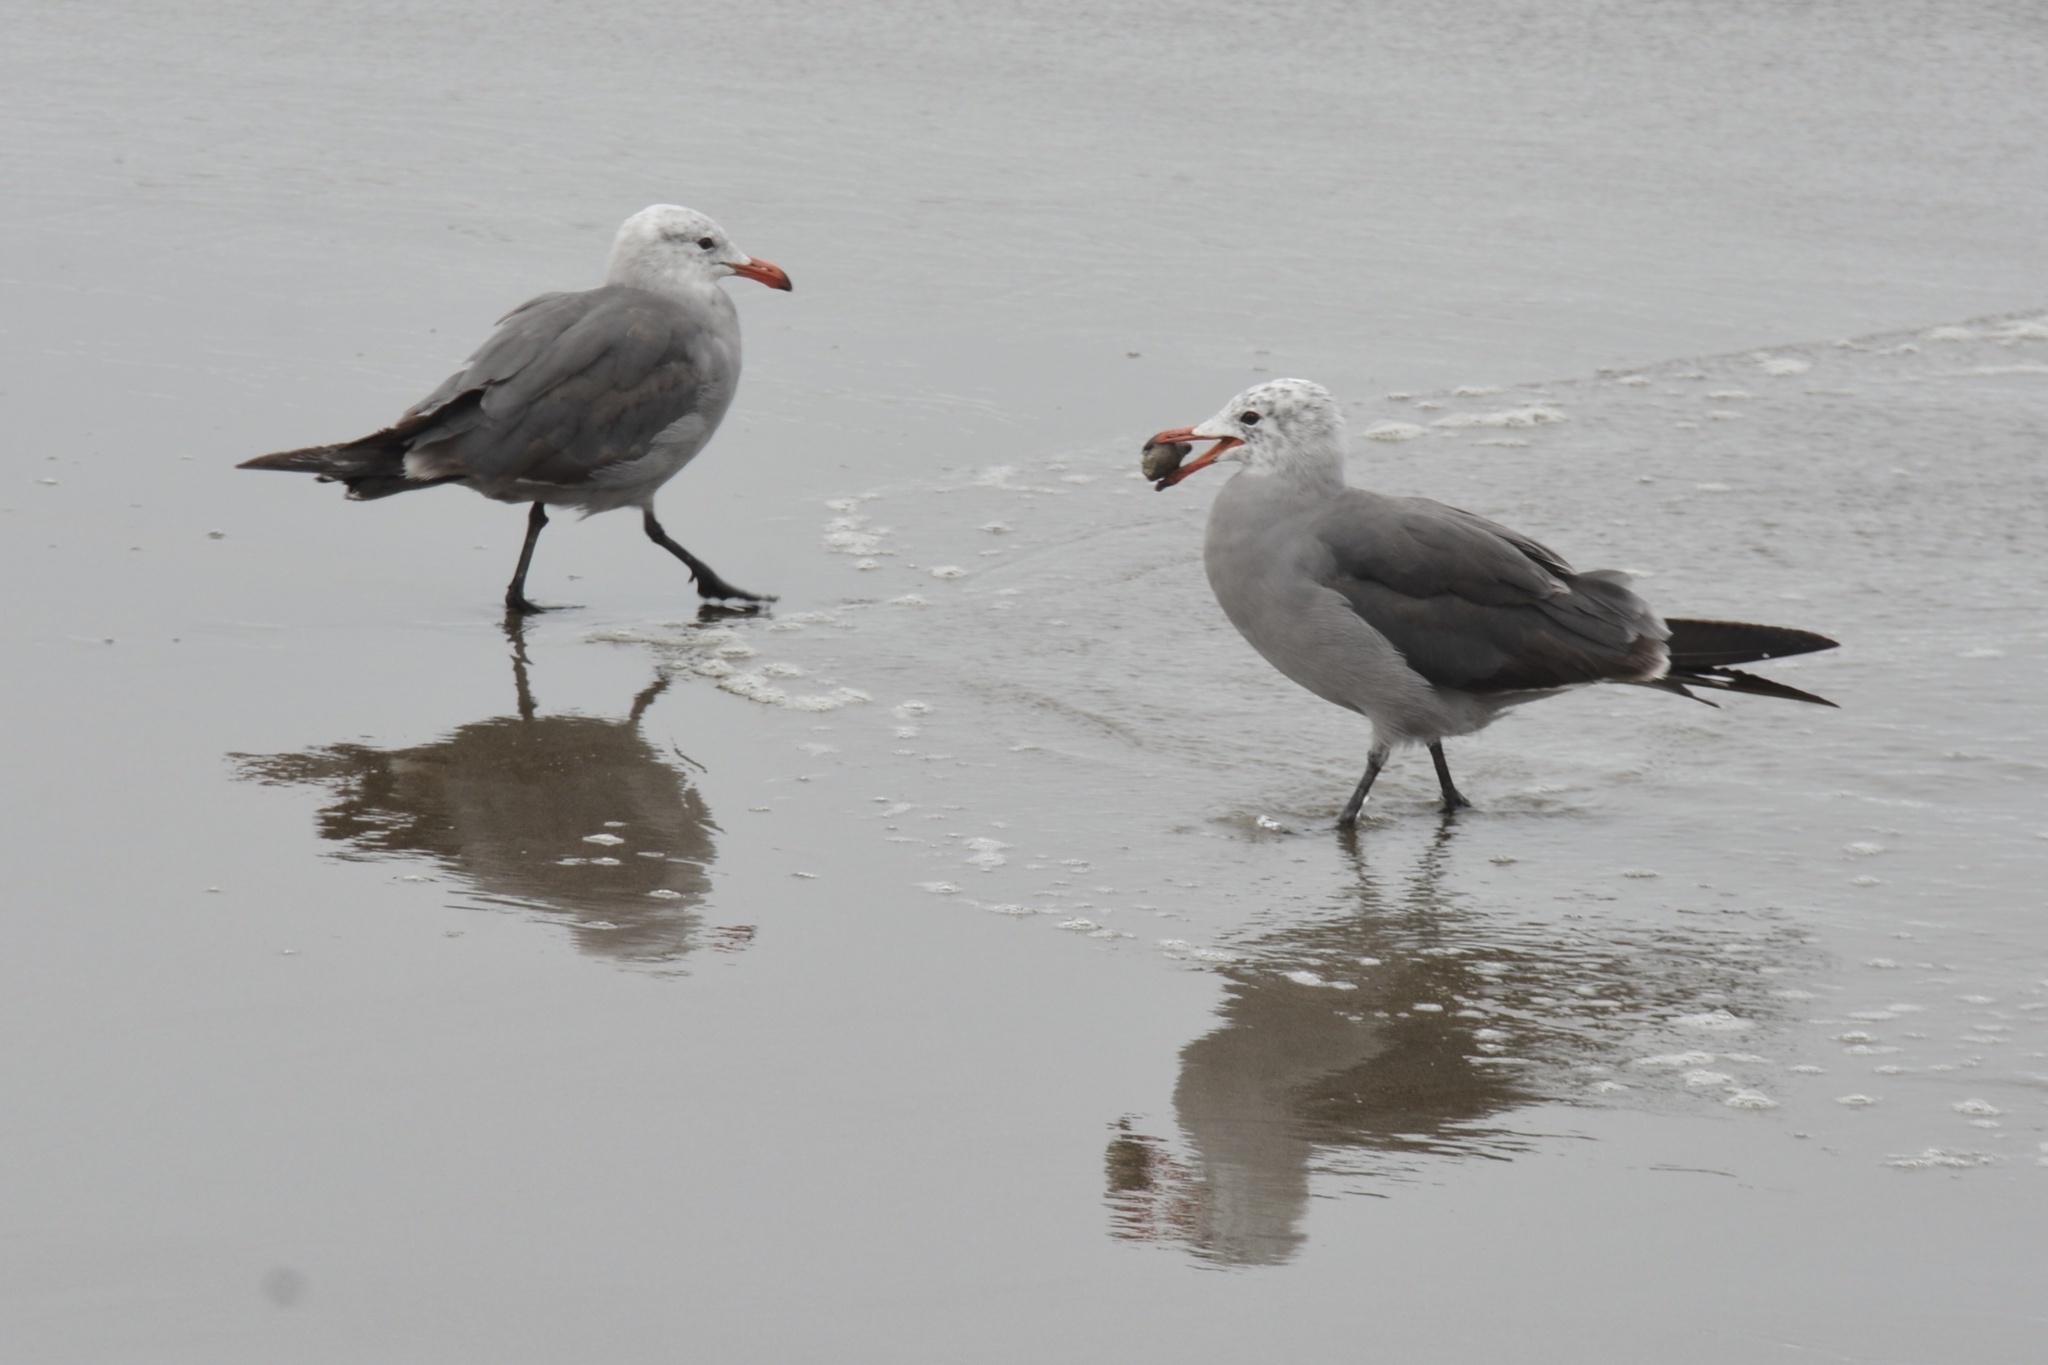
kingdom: Animalia
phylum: Chordata
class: Aves
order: Charadriiformes
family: Laridae
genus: Larus
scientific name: Larus heermanni
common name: Heermann's gull
